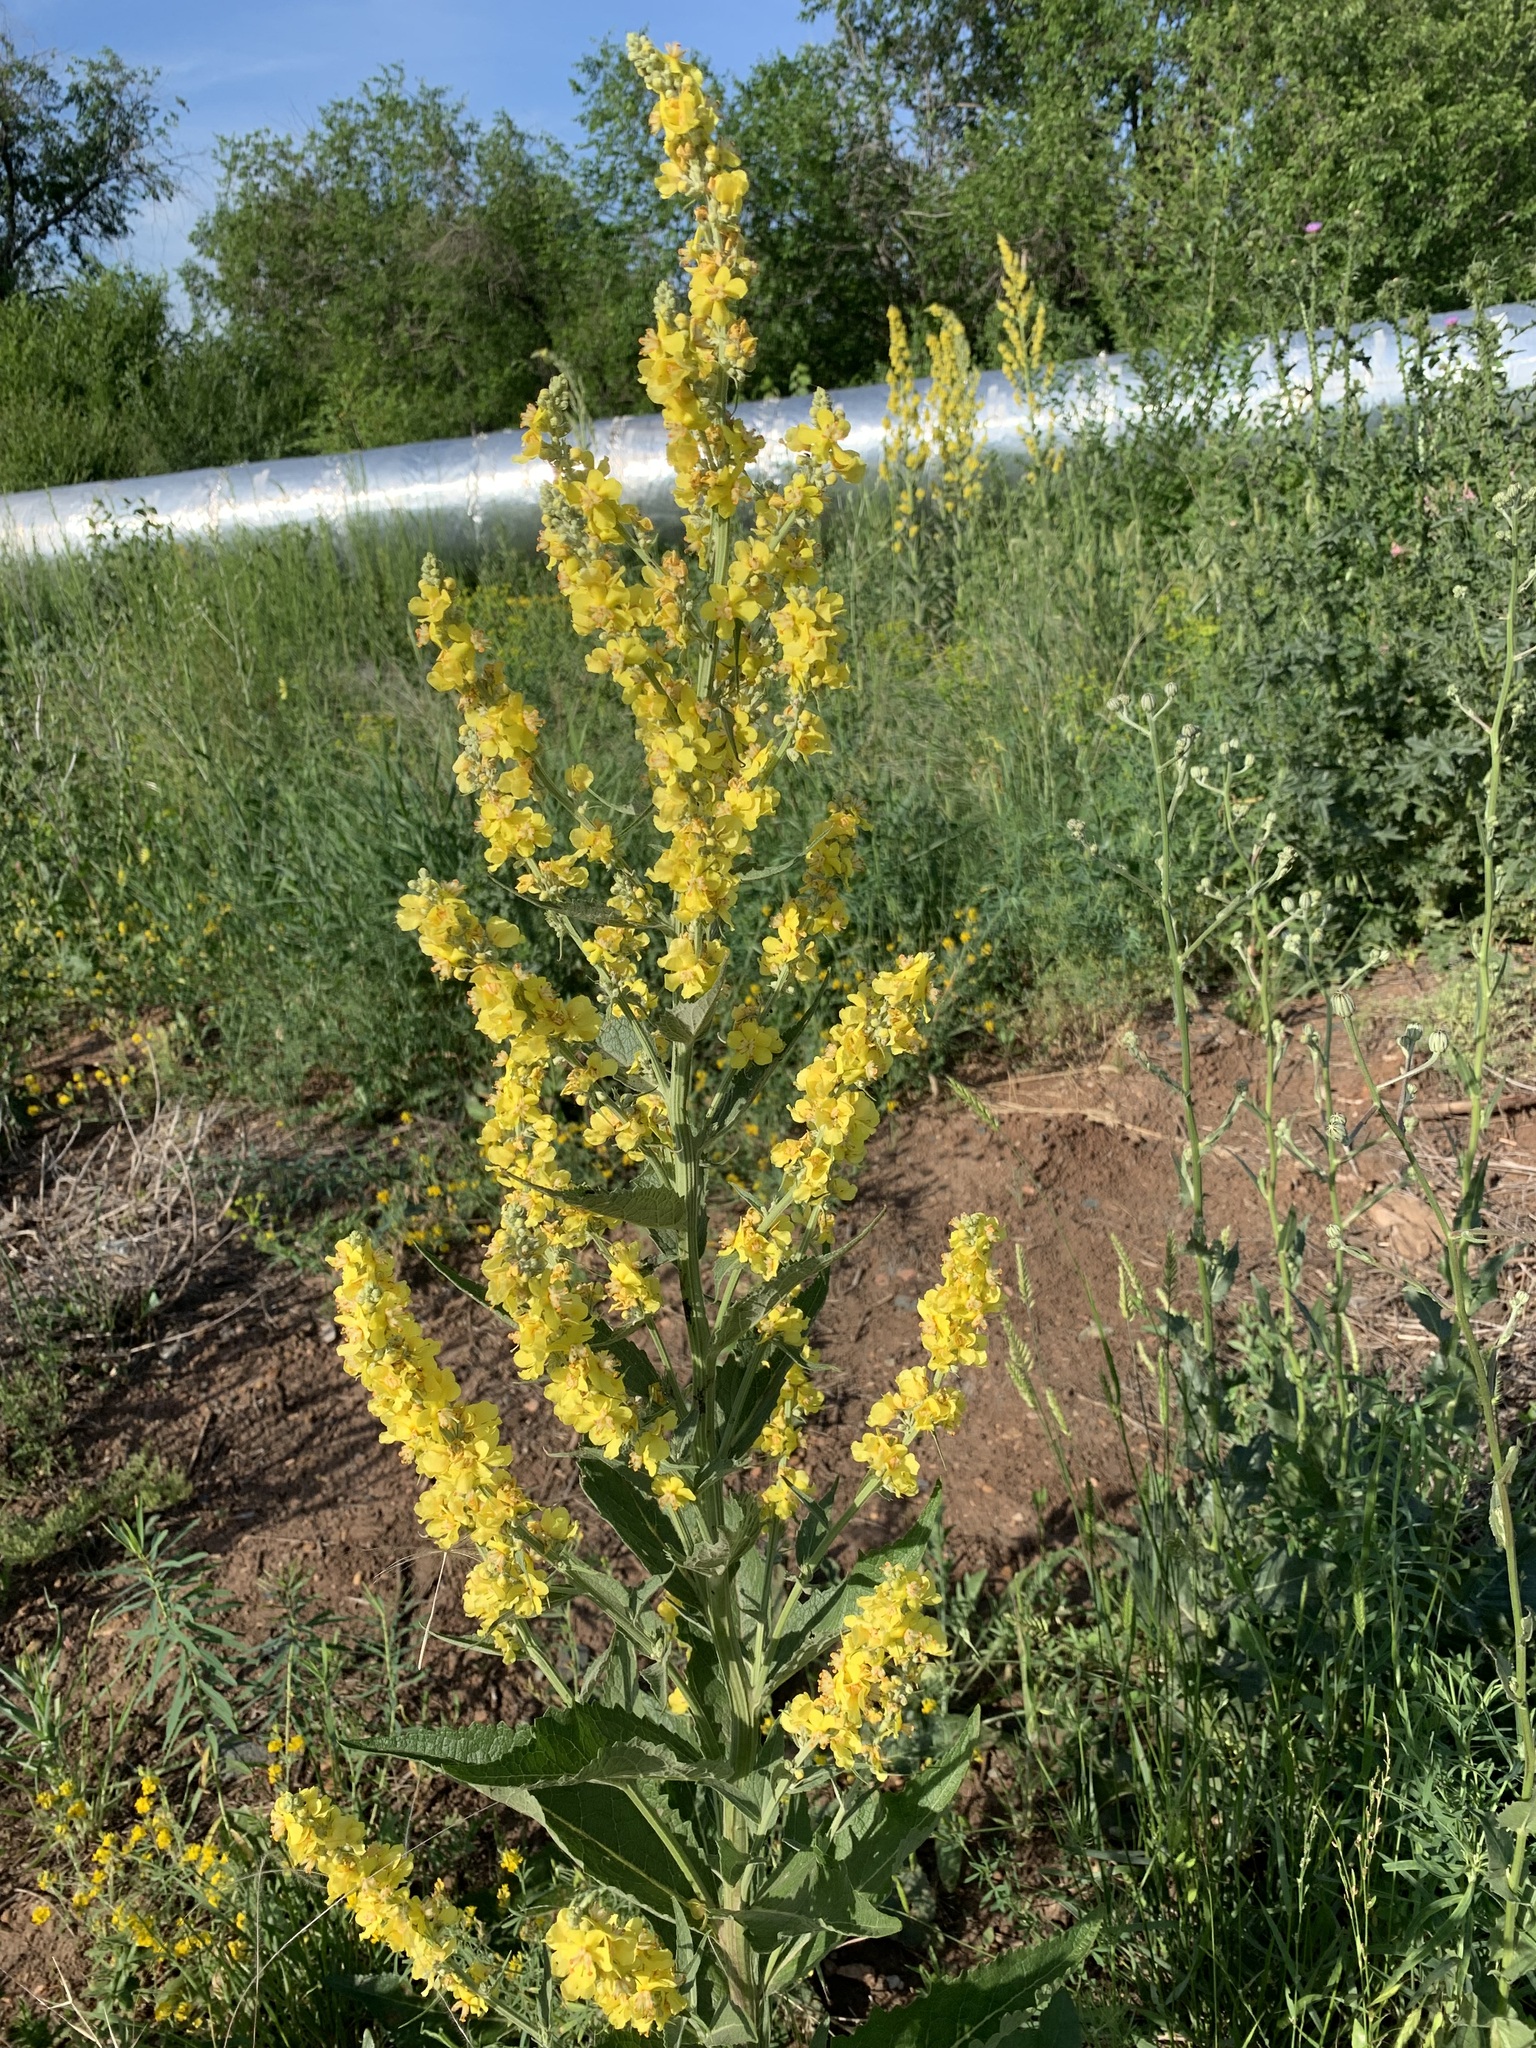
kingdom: Plantae
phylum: Tracheophyta
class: Magnoliopsida
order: Lamiales
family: Scrophulariaceae
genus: Verbascum
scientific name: Verbascum lychnitis
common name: White mullein
